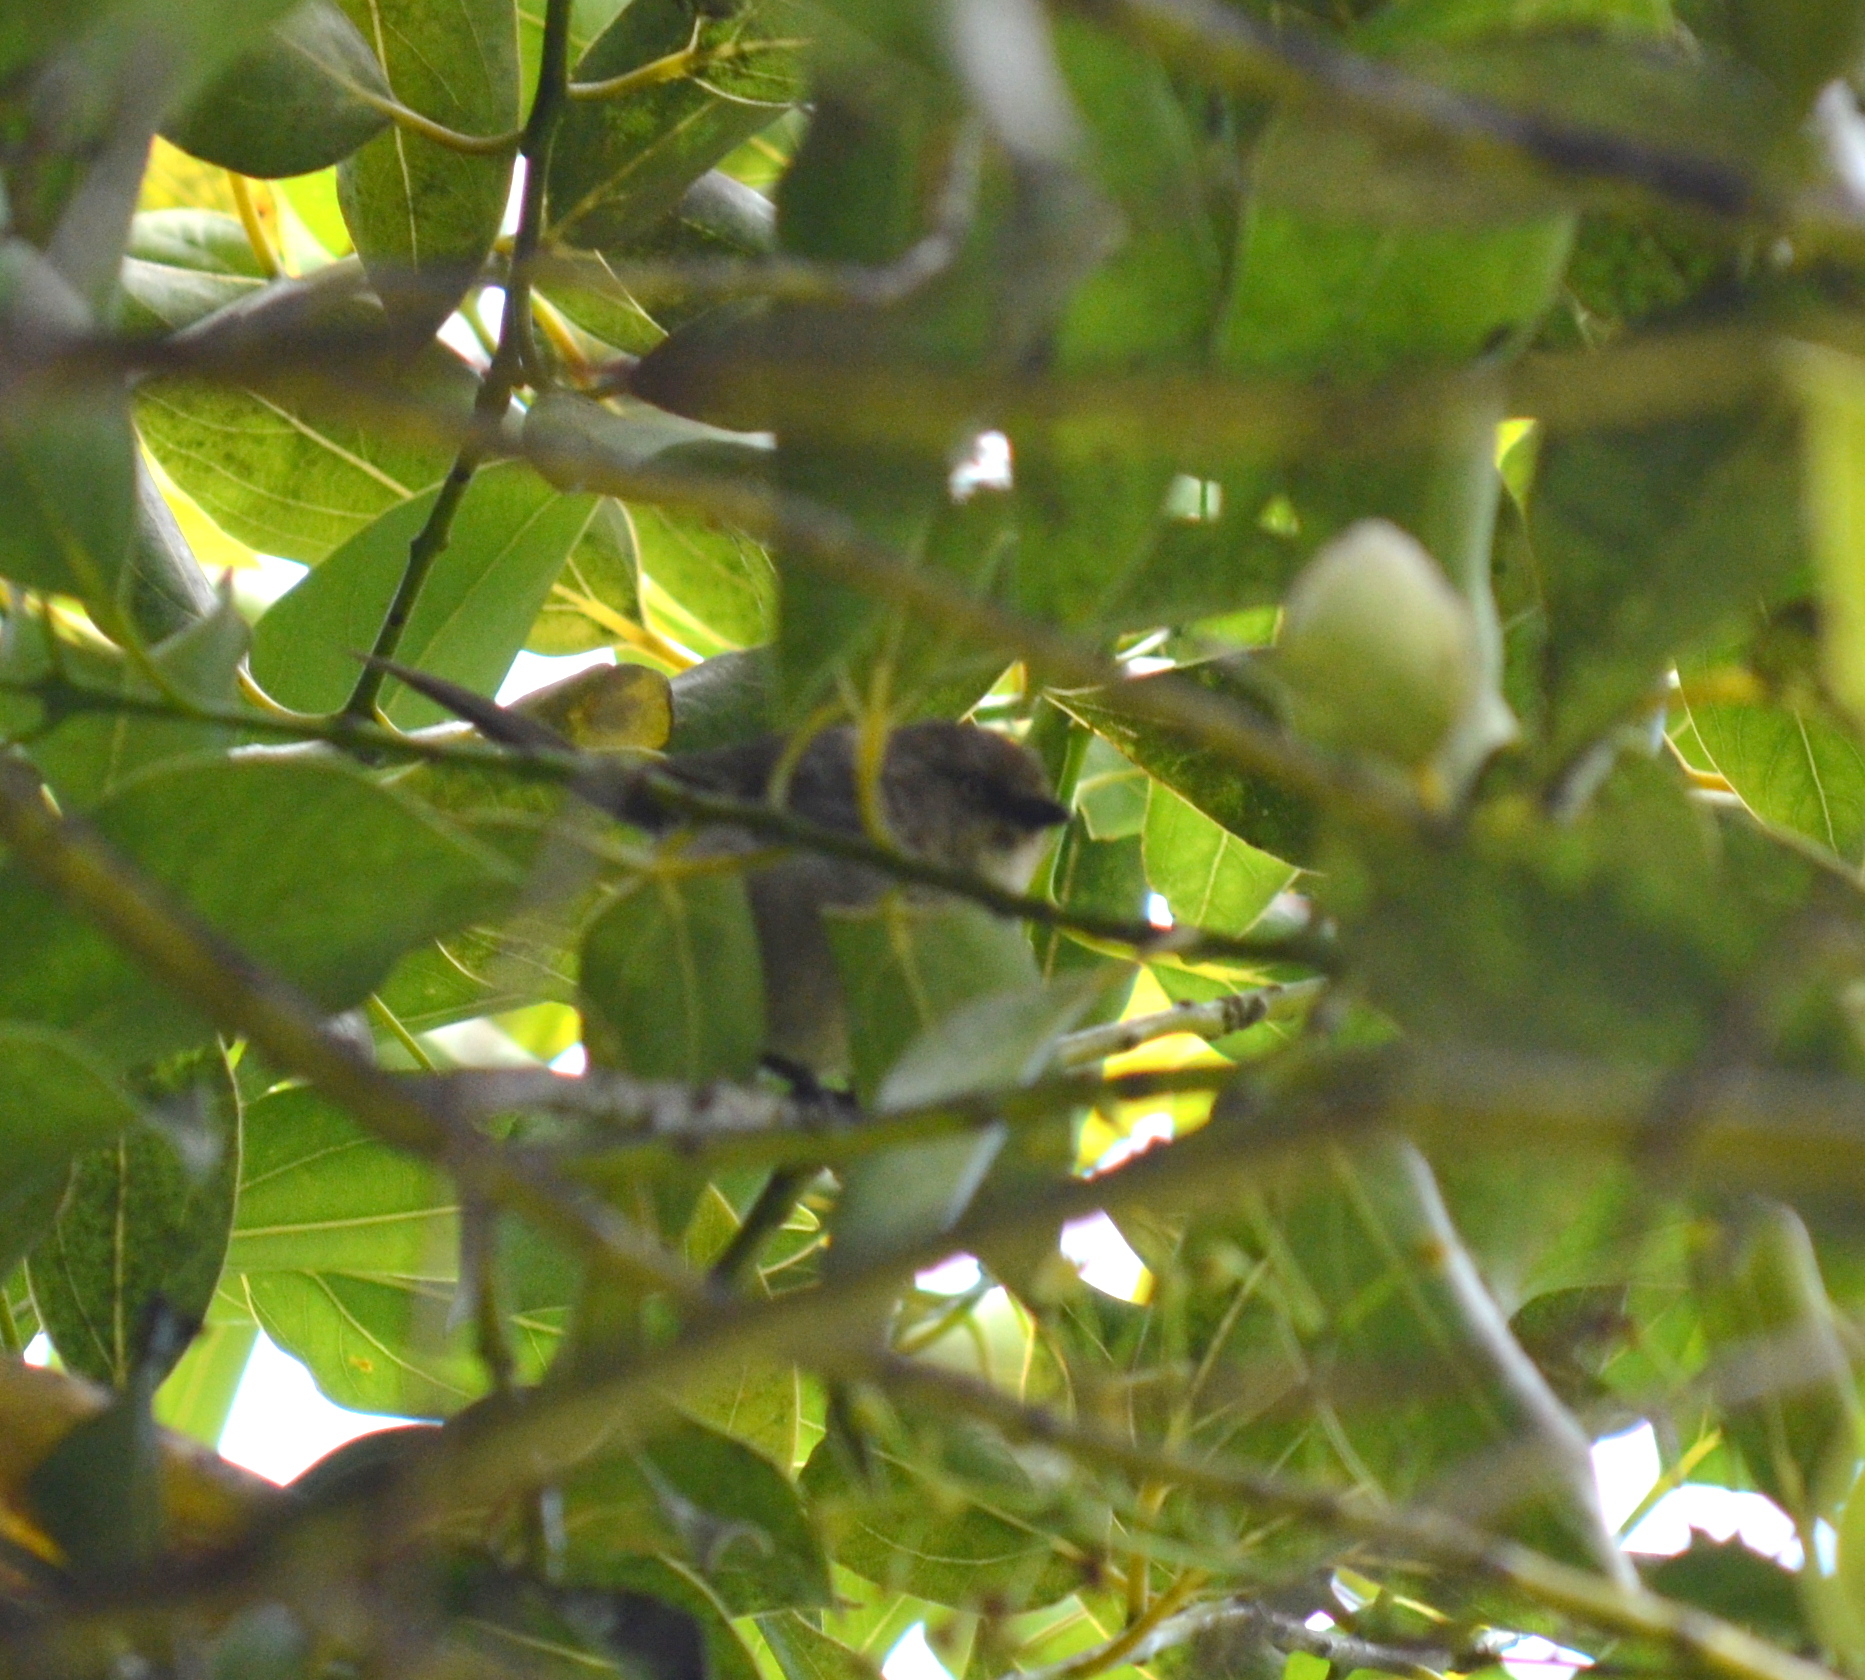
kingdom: Animalia
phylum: Chordata
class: Aves
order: Passeriformes
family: Aegithalidae
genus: Psaltriparus
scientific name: Psaltriparus minimus
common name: American bushtit
